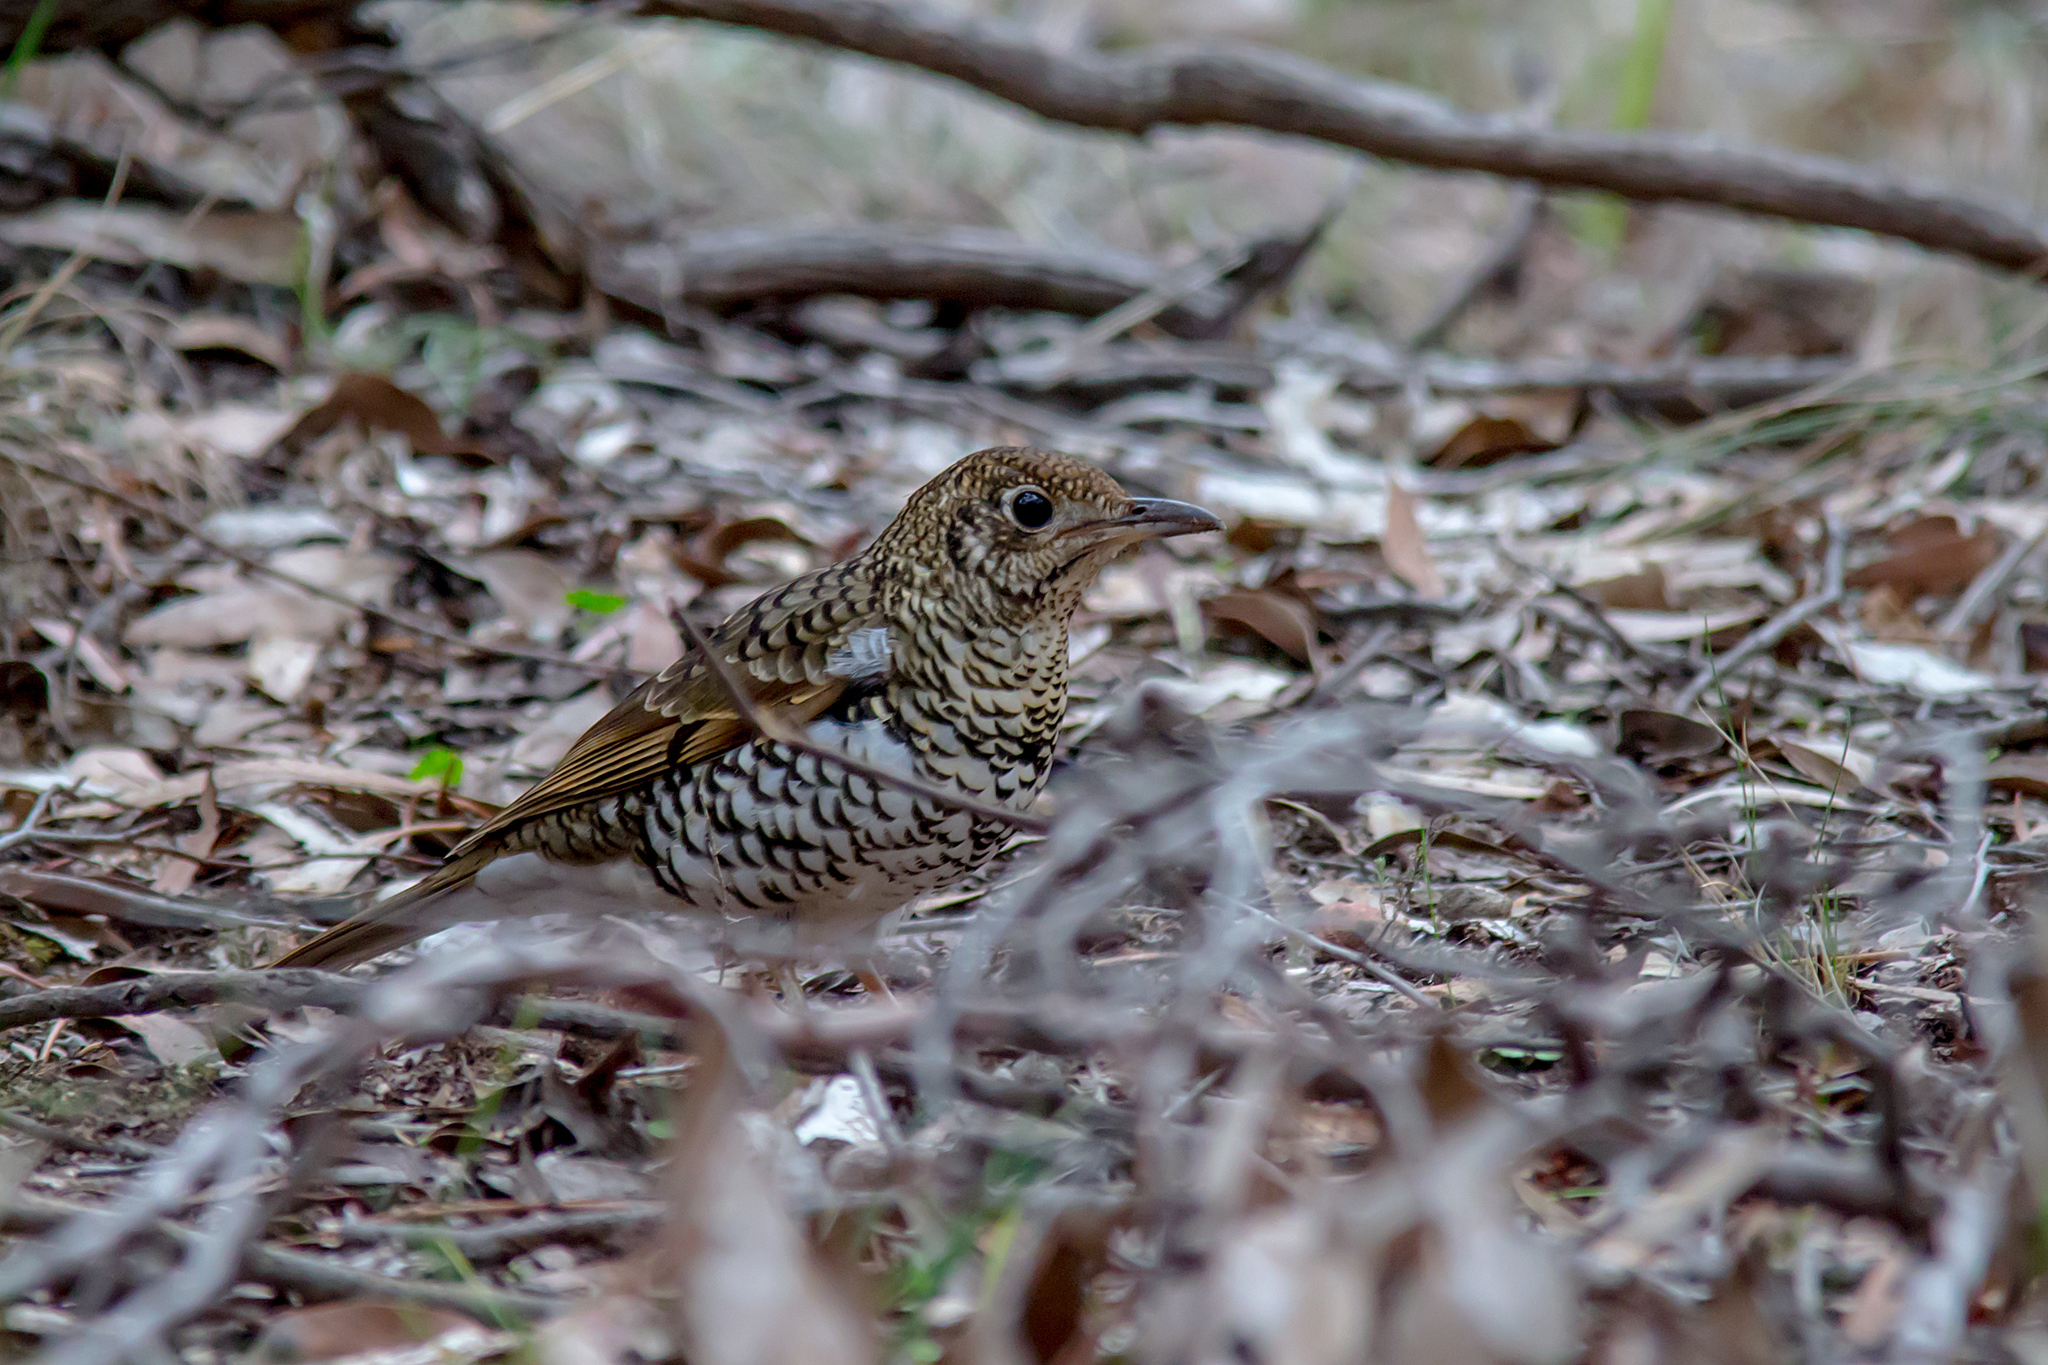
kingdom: Animalia
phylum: Chordata
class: Aves
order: Passeriformes
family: Turdidae
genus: Zoothera
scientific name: Zoothera lunulata
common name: Bassian thrush
